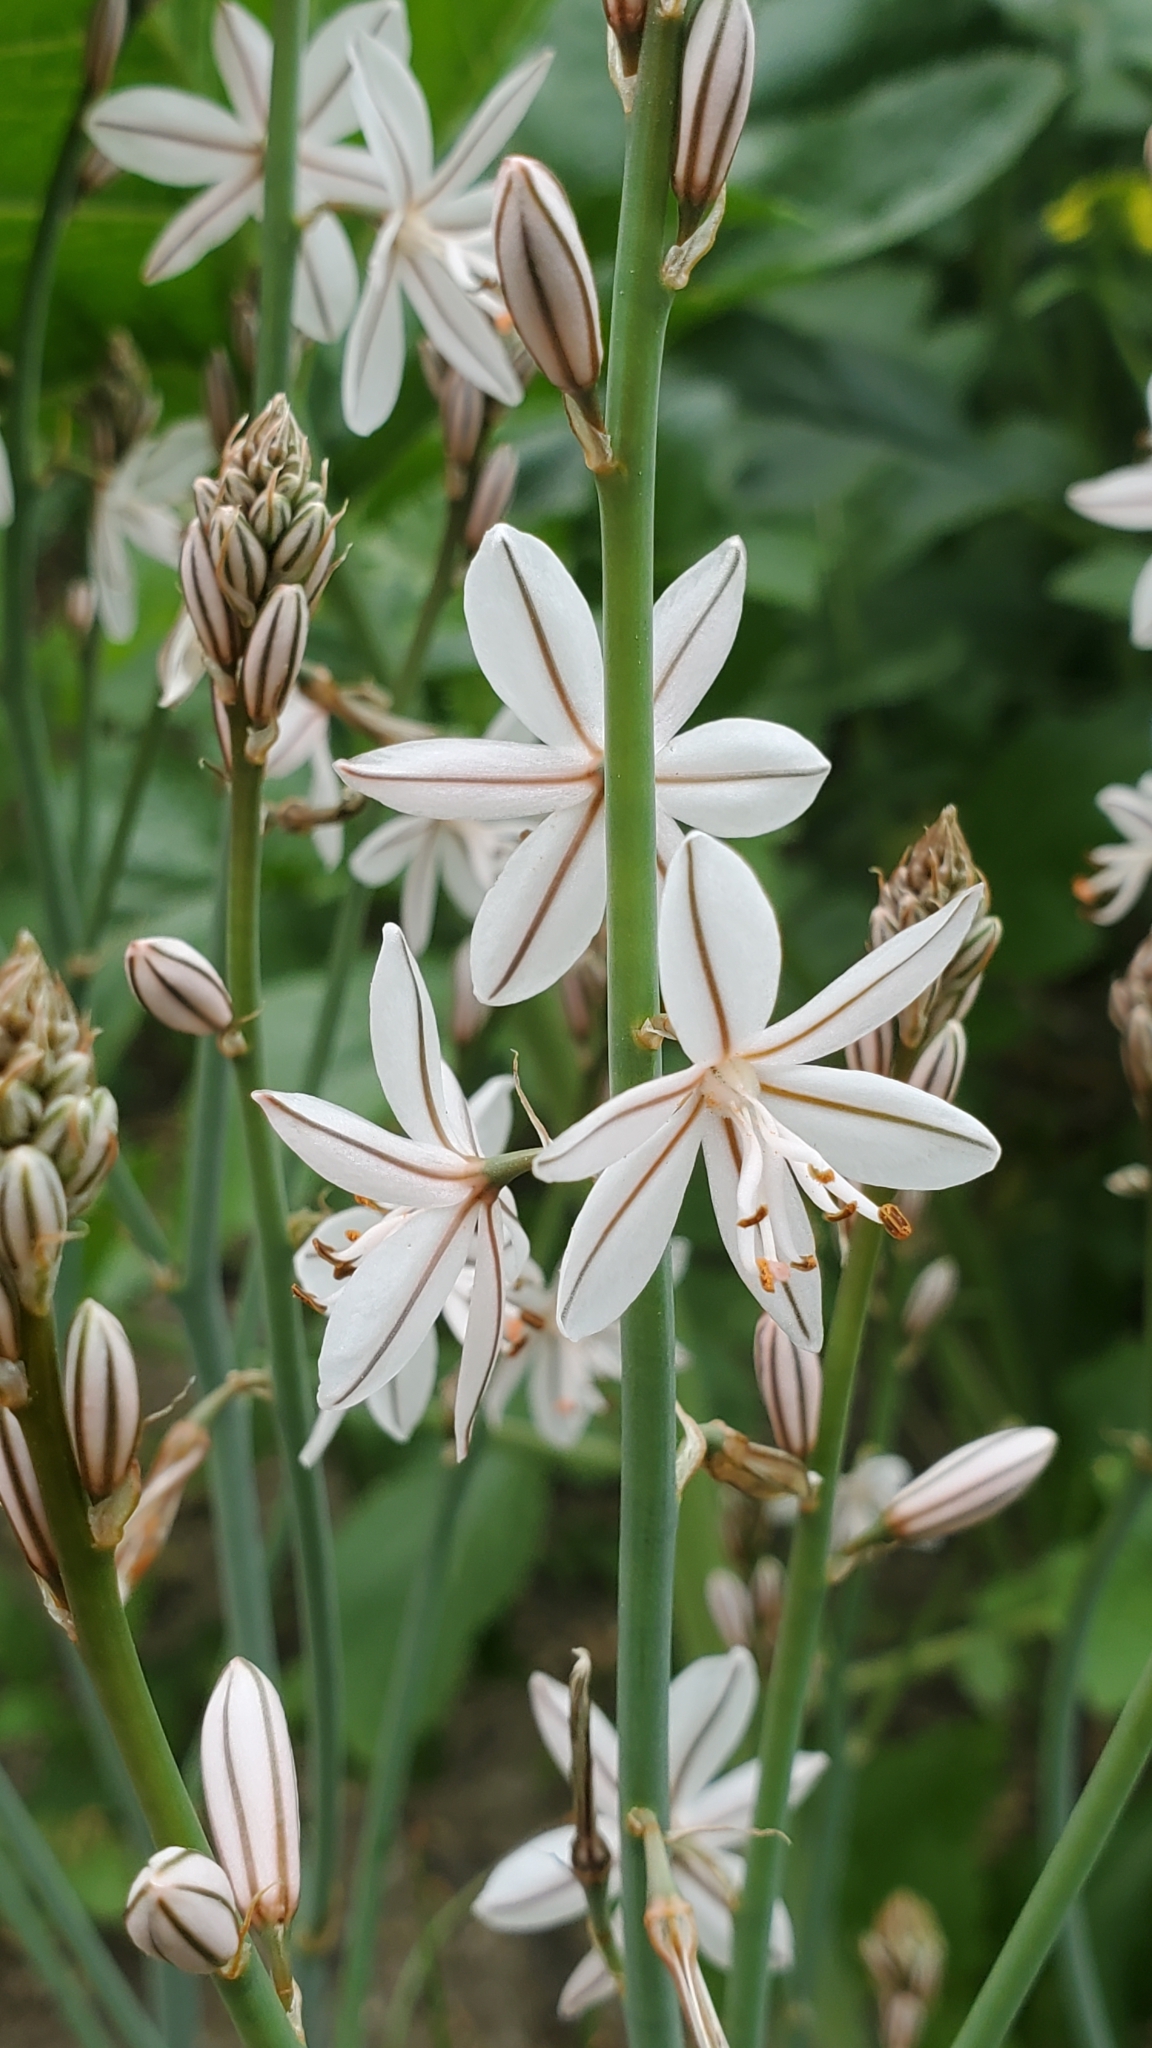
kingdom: Plantae
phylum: Tracheophyta
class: Liliopsida
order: Asparagales
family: Asphodelaceae
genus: Asphodelus
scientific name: Asphodelus fistulosus
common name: Onionweed
